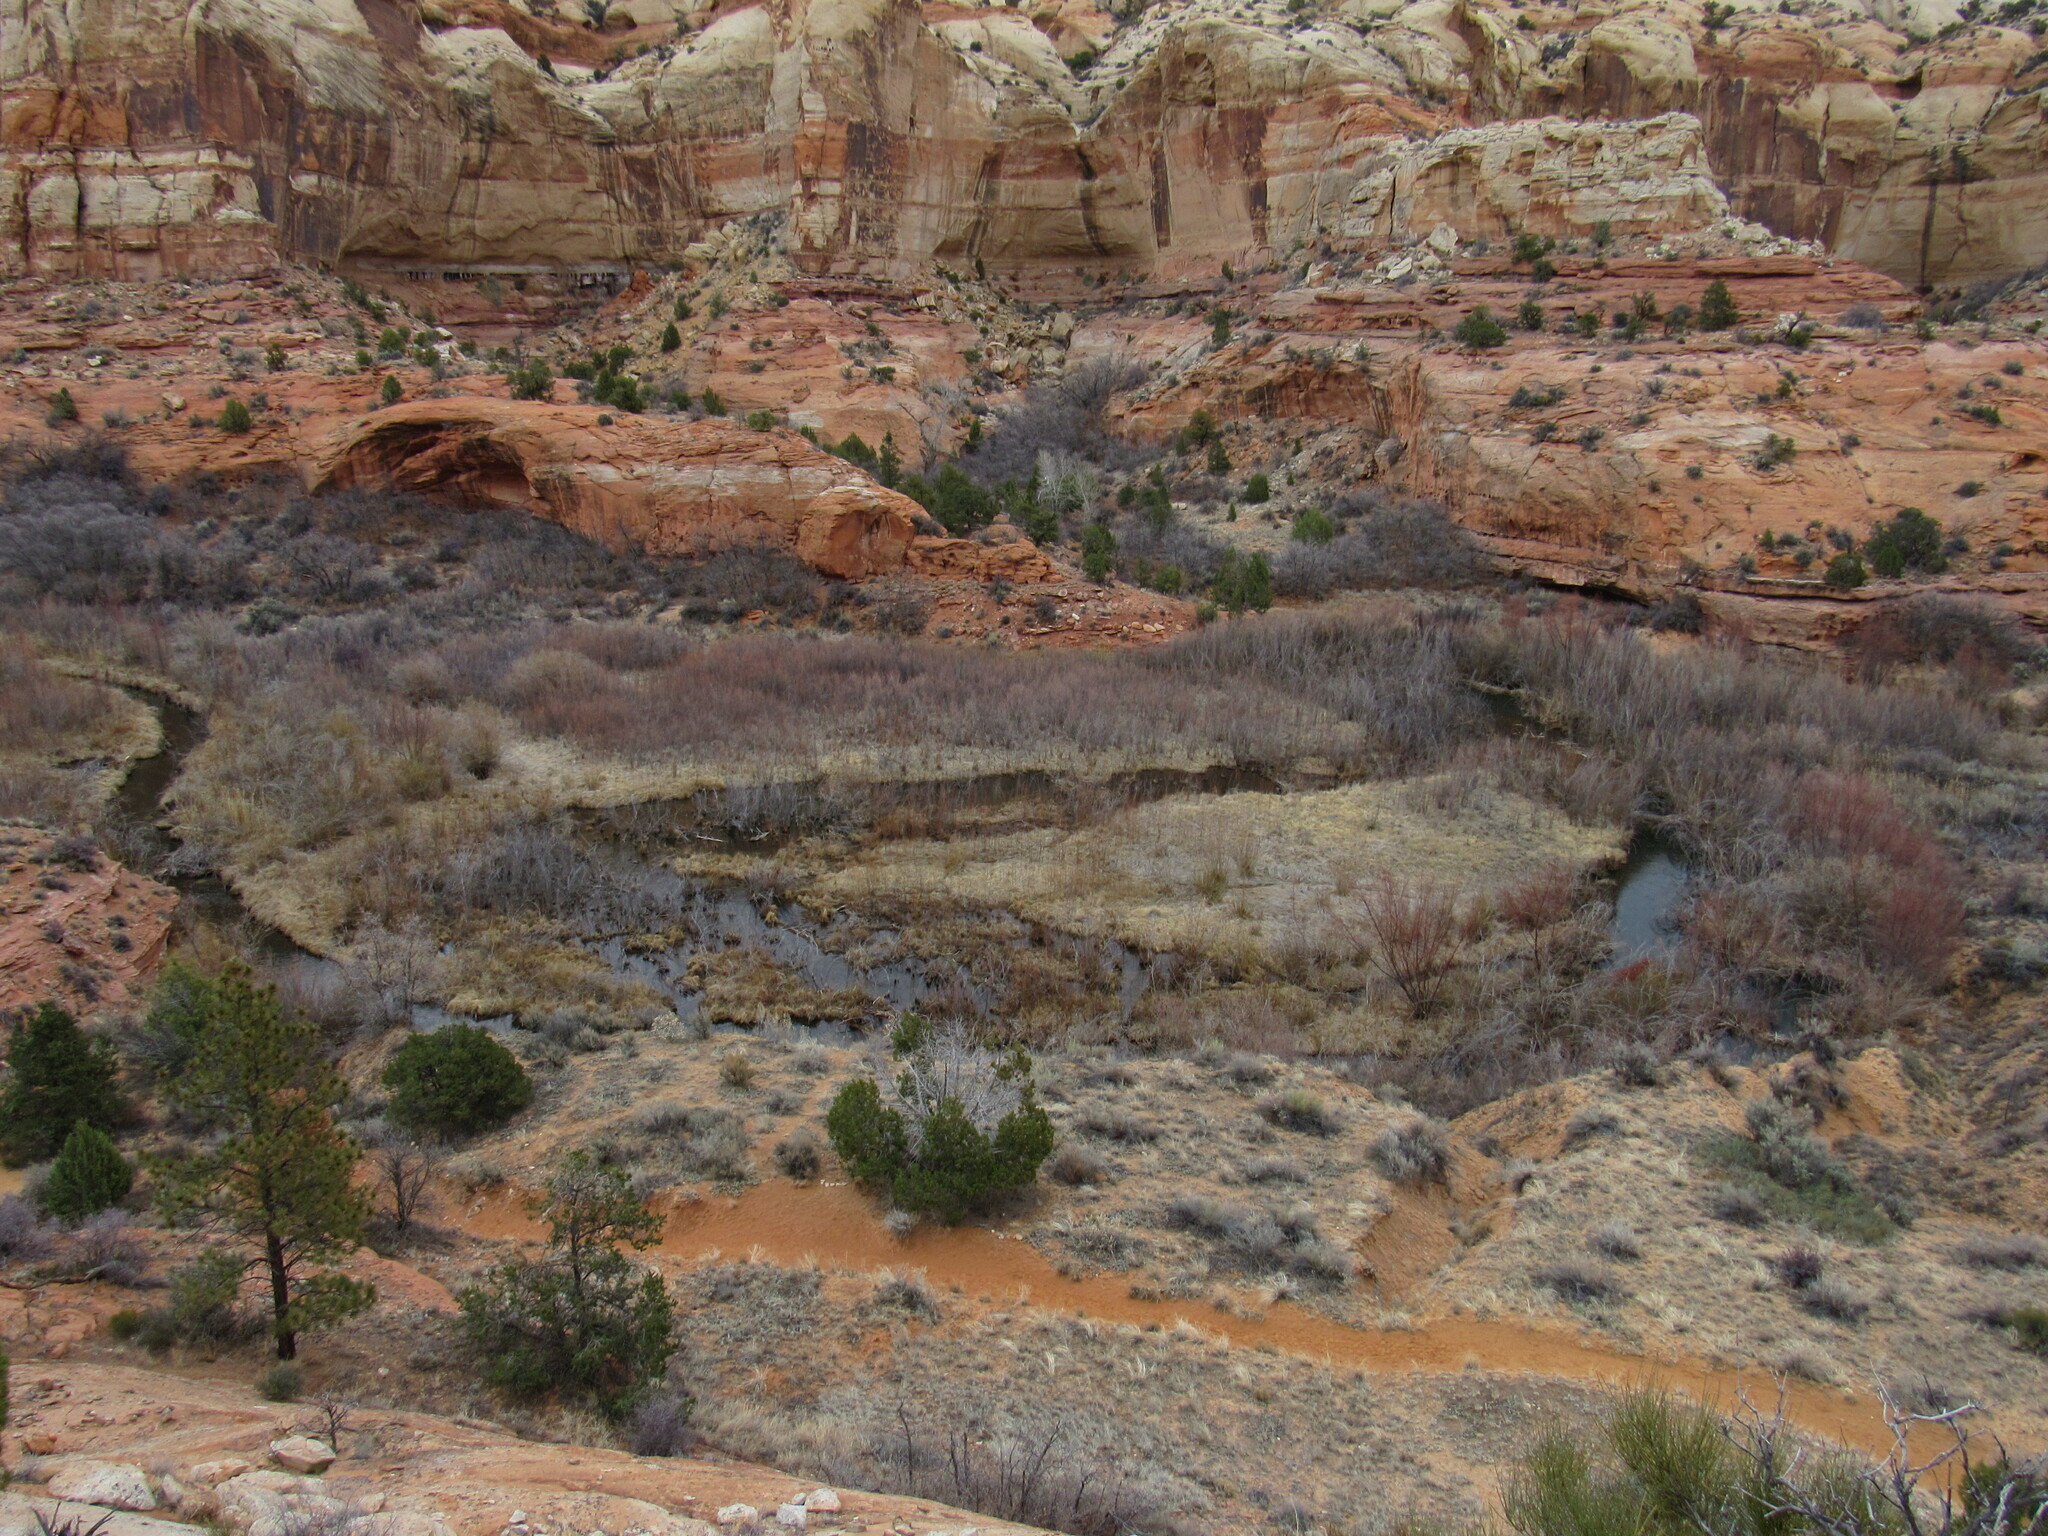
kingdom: Animalia
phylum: Chordata
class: Mammalia
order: Rodentia
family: Castoridae
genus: Castor
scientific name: Castor canadensis
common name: American beaver
